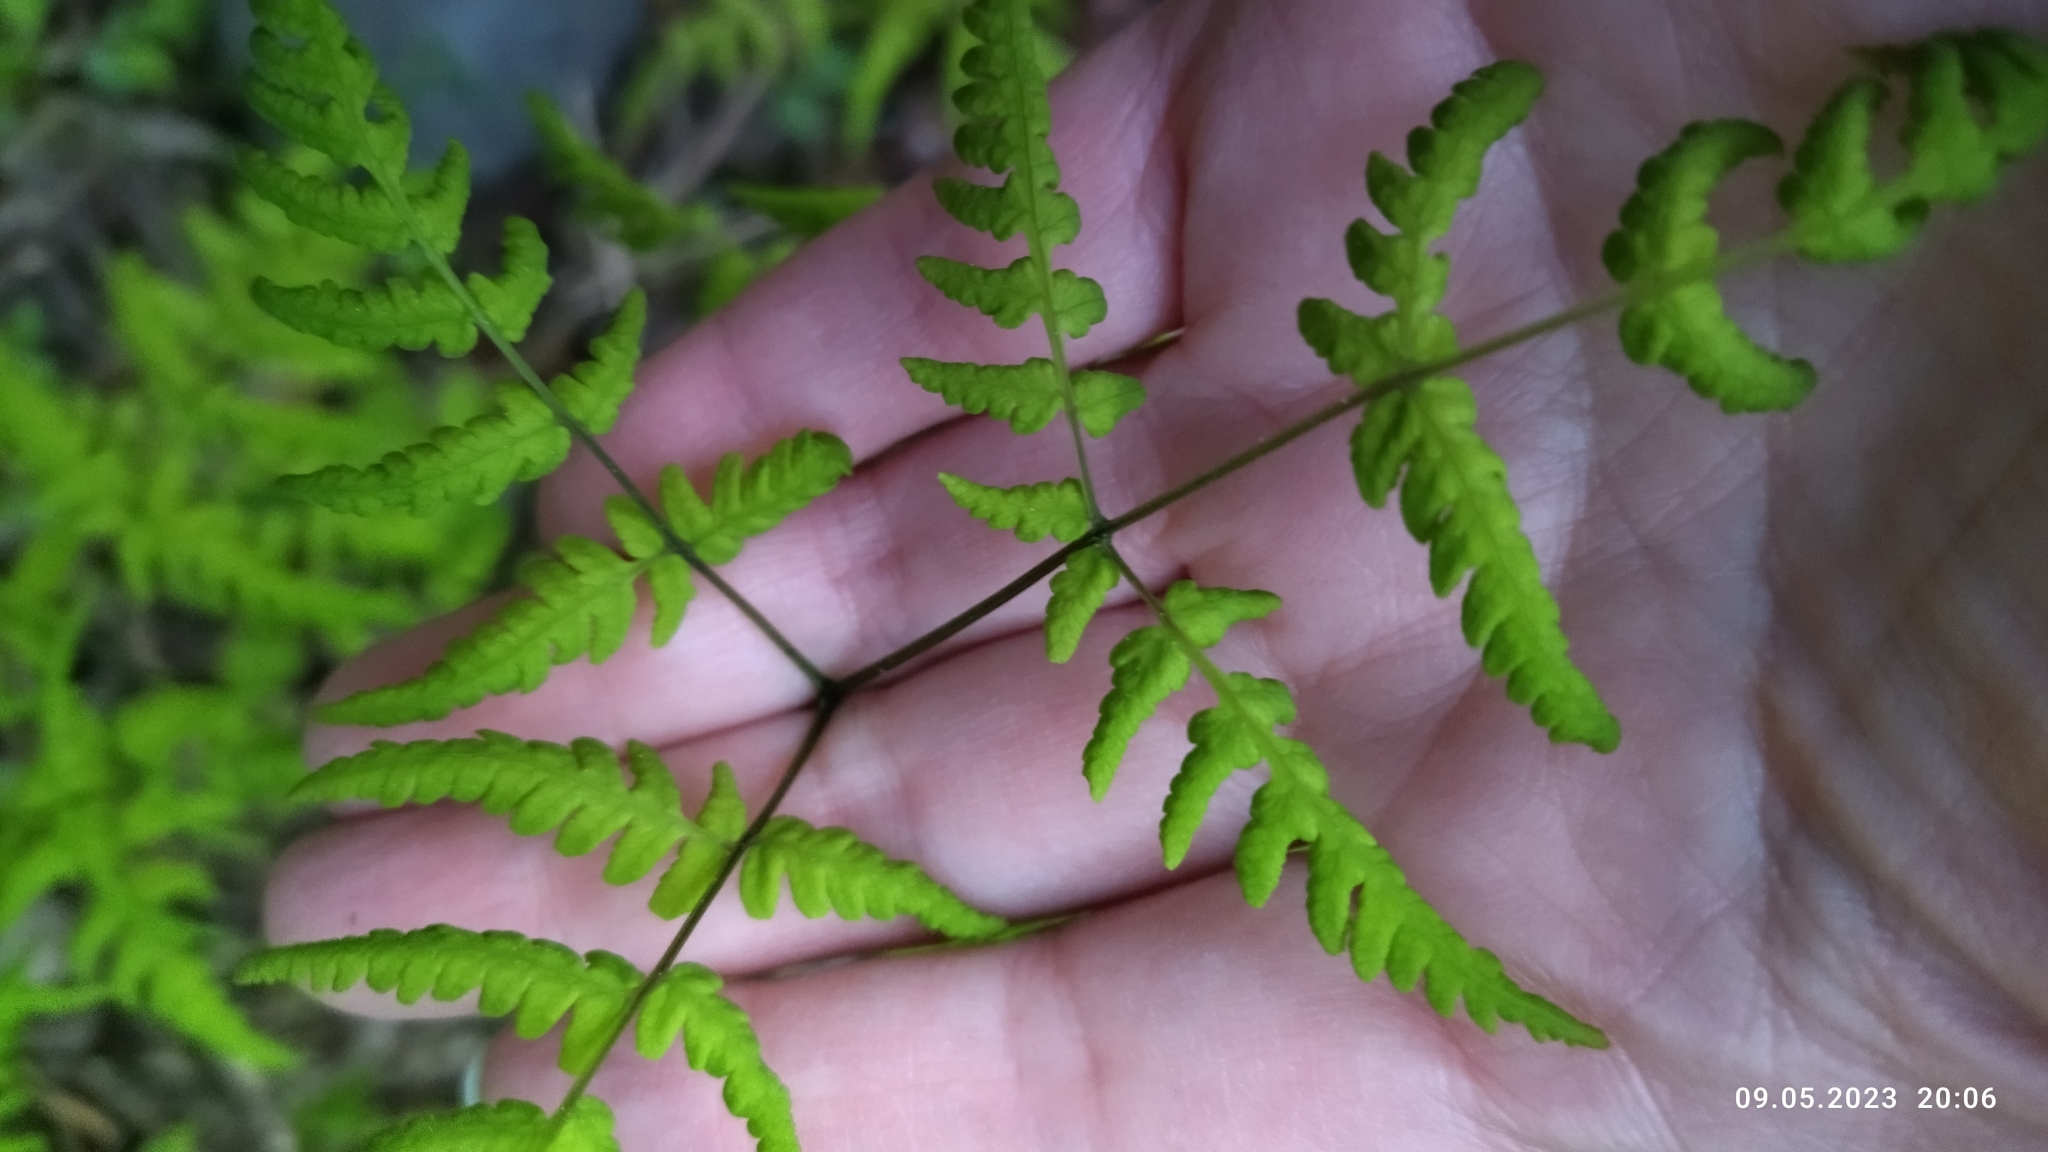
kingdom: Plantae
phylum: Tracheophyta
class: Polypodiopsida
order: Polypodiales
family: Cystopteridaceae
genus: Gymnocarpium
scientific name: Gymnocarpium dryopteris
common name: Oak fern
